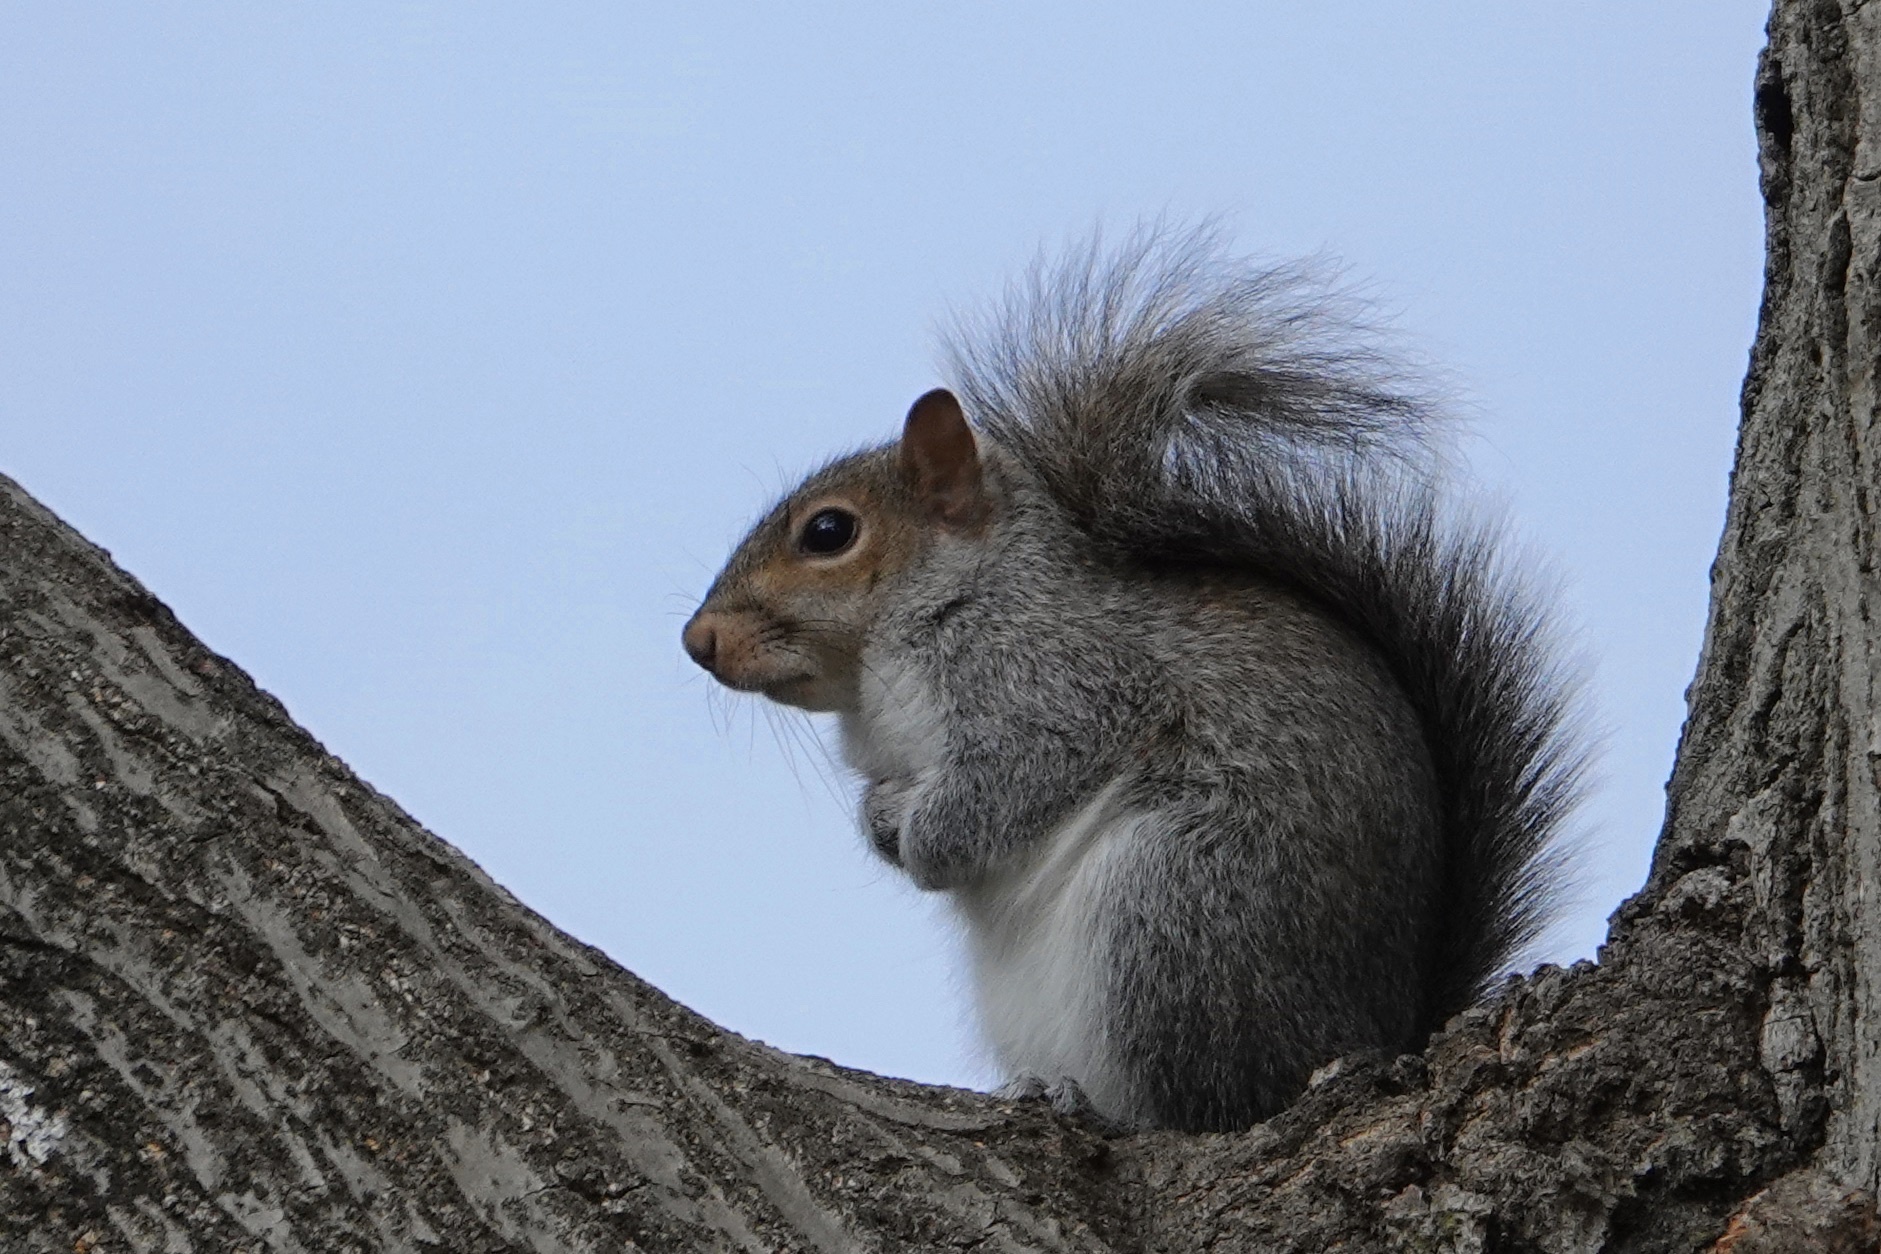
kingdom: Animalia
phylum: Chordata
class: Mammalia
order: Rodentia
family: Sciuridae
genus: Sciurus
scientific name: Sciurus carolinensis
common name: Eastern gray squirrel
